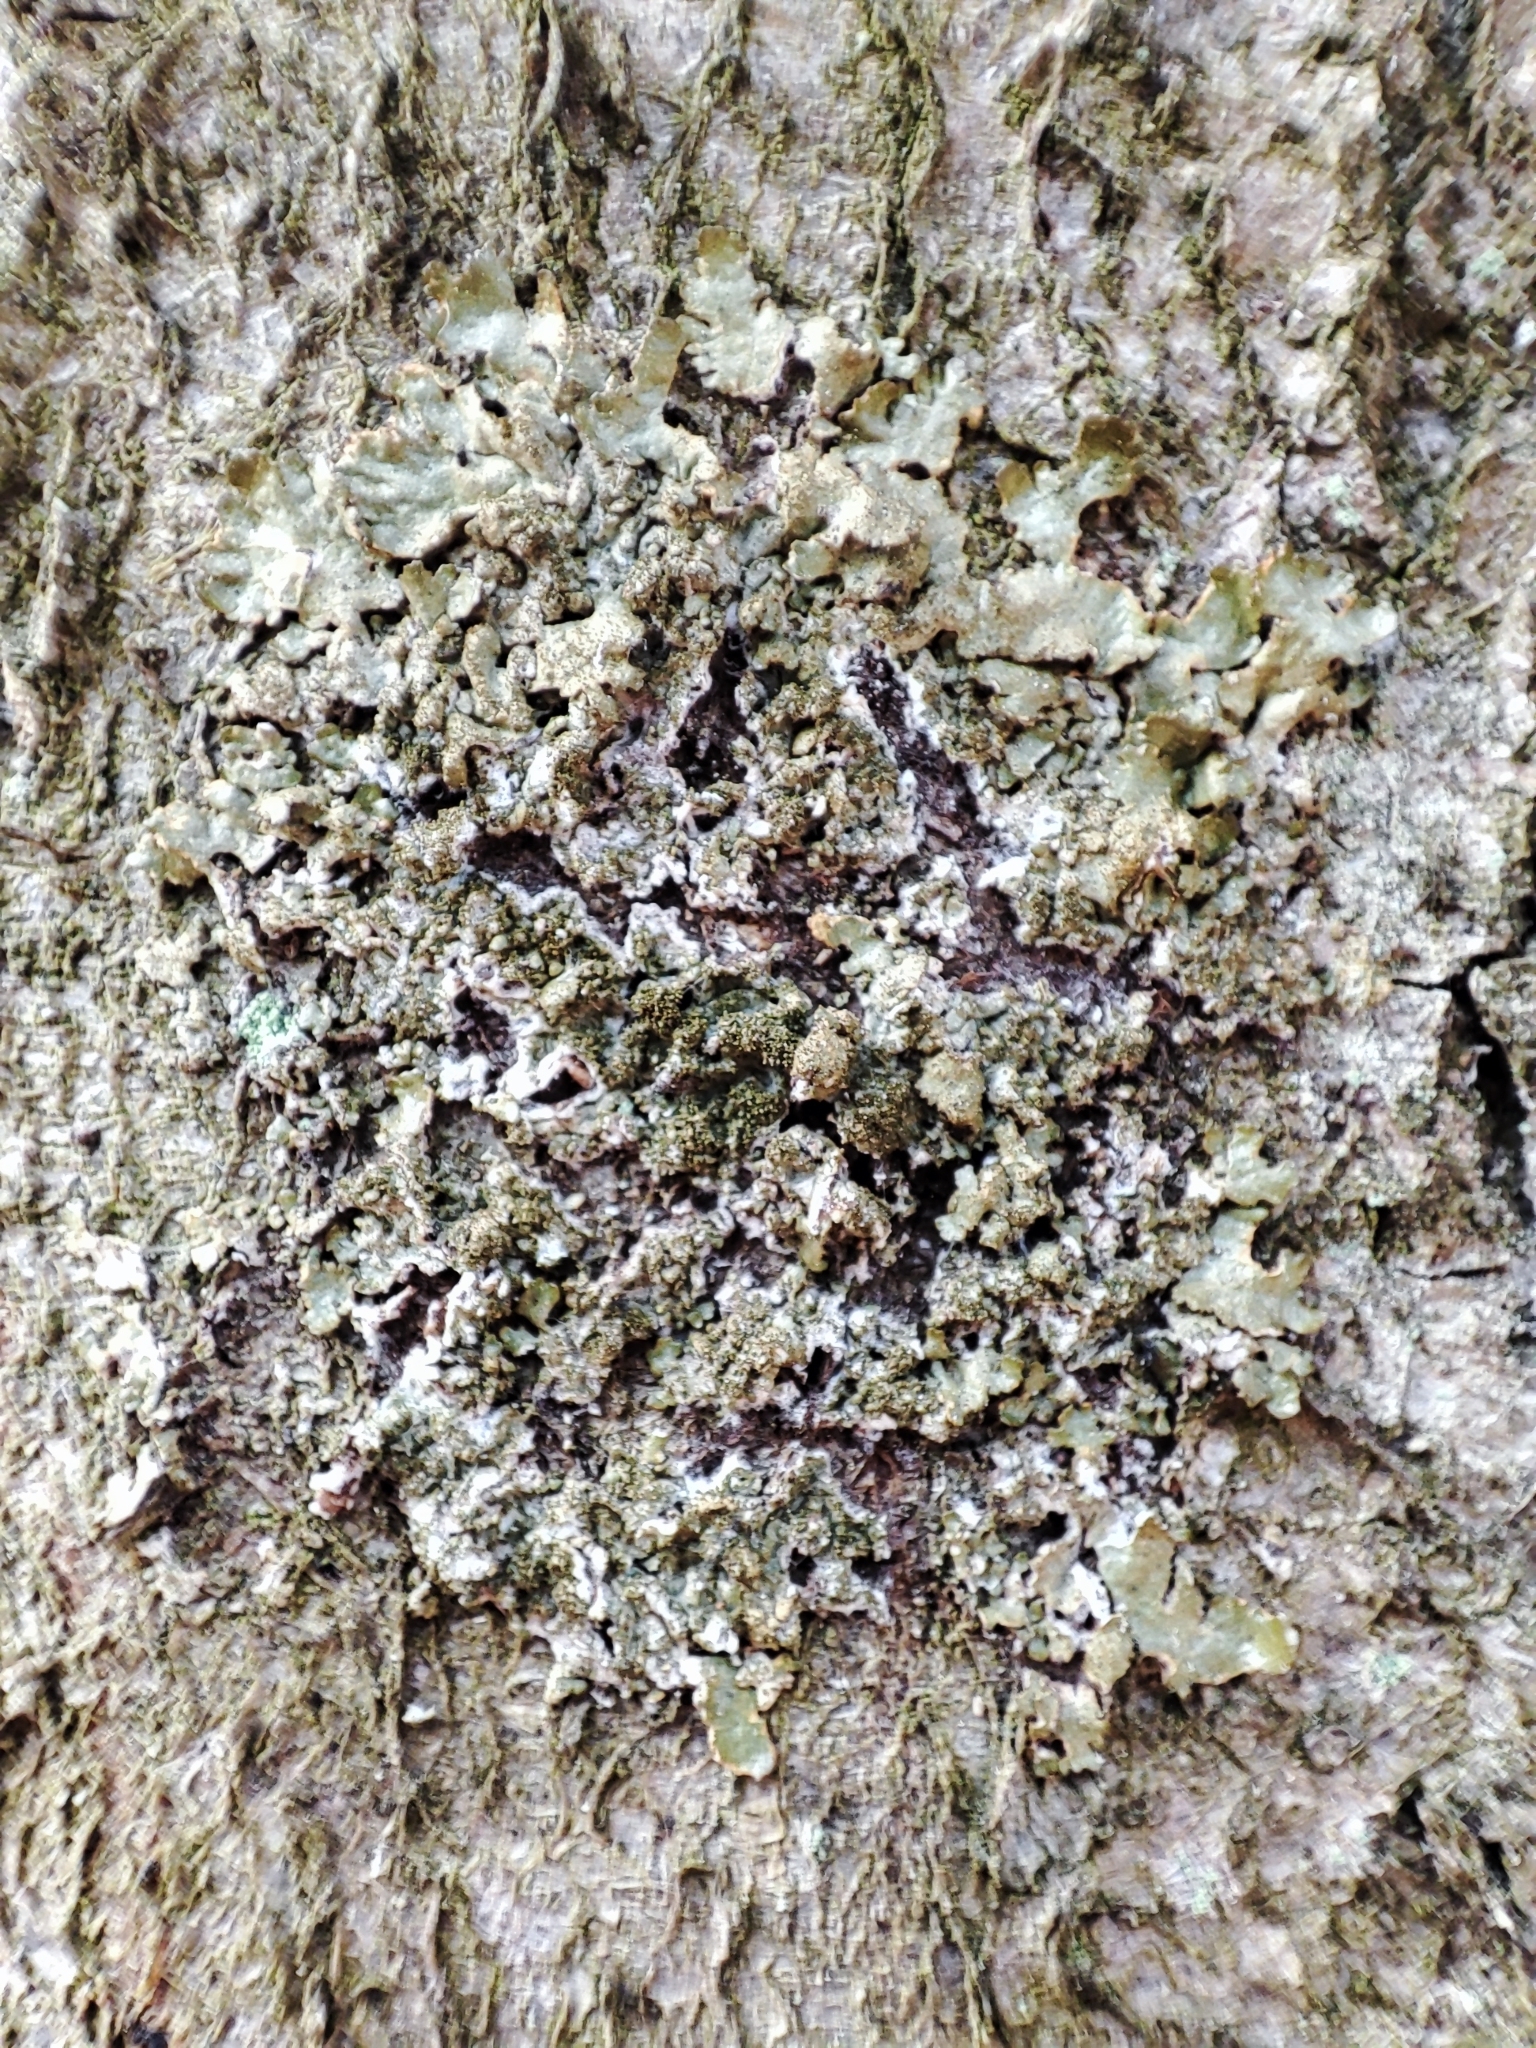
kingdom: Fungi
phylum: Ascomycota
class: Lecanoromycetes
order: Lecanorales
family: Parmeliaceae
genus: Melanohalea
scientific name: Melanohalea exasperatula
